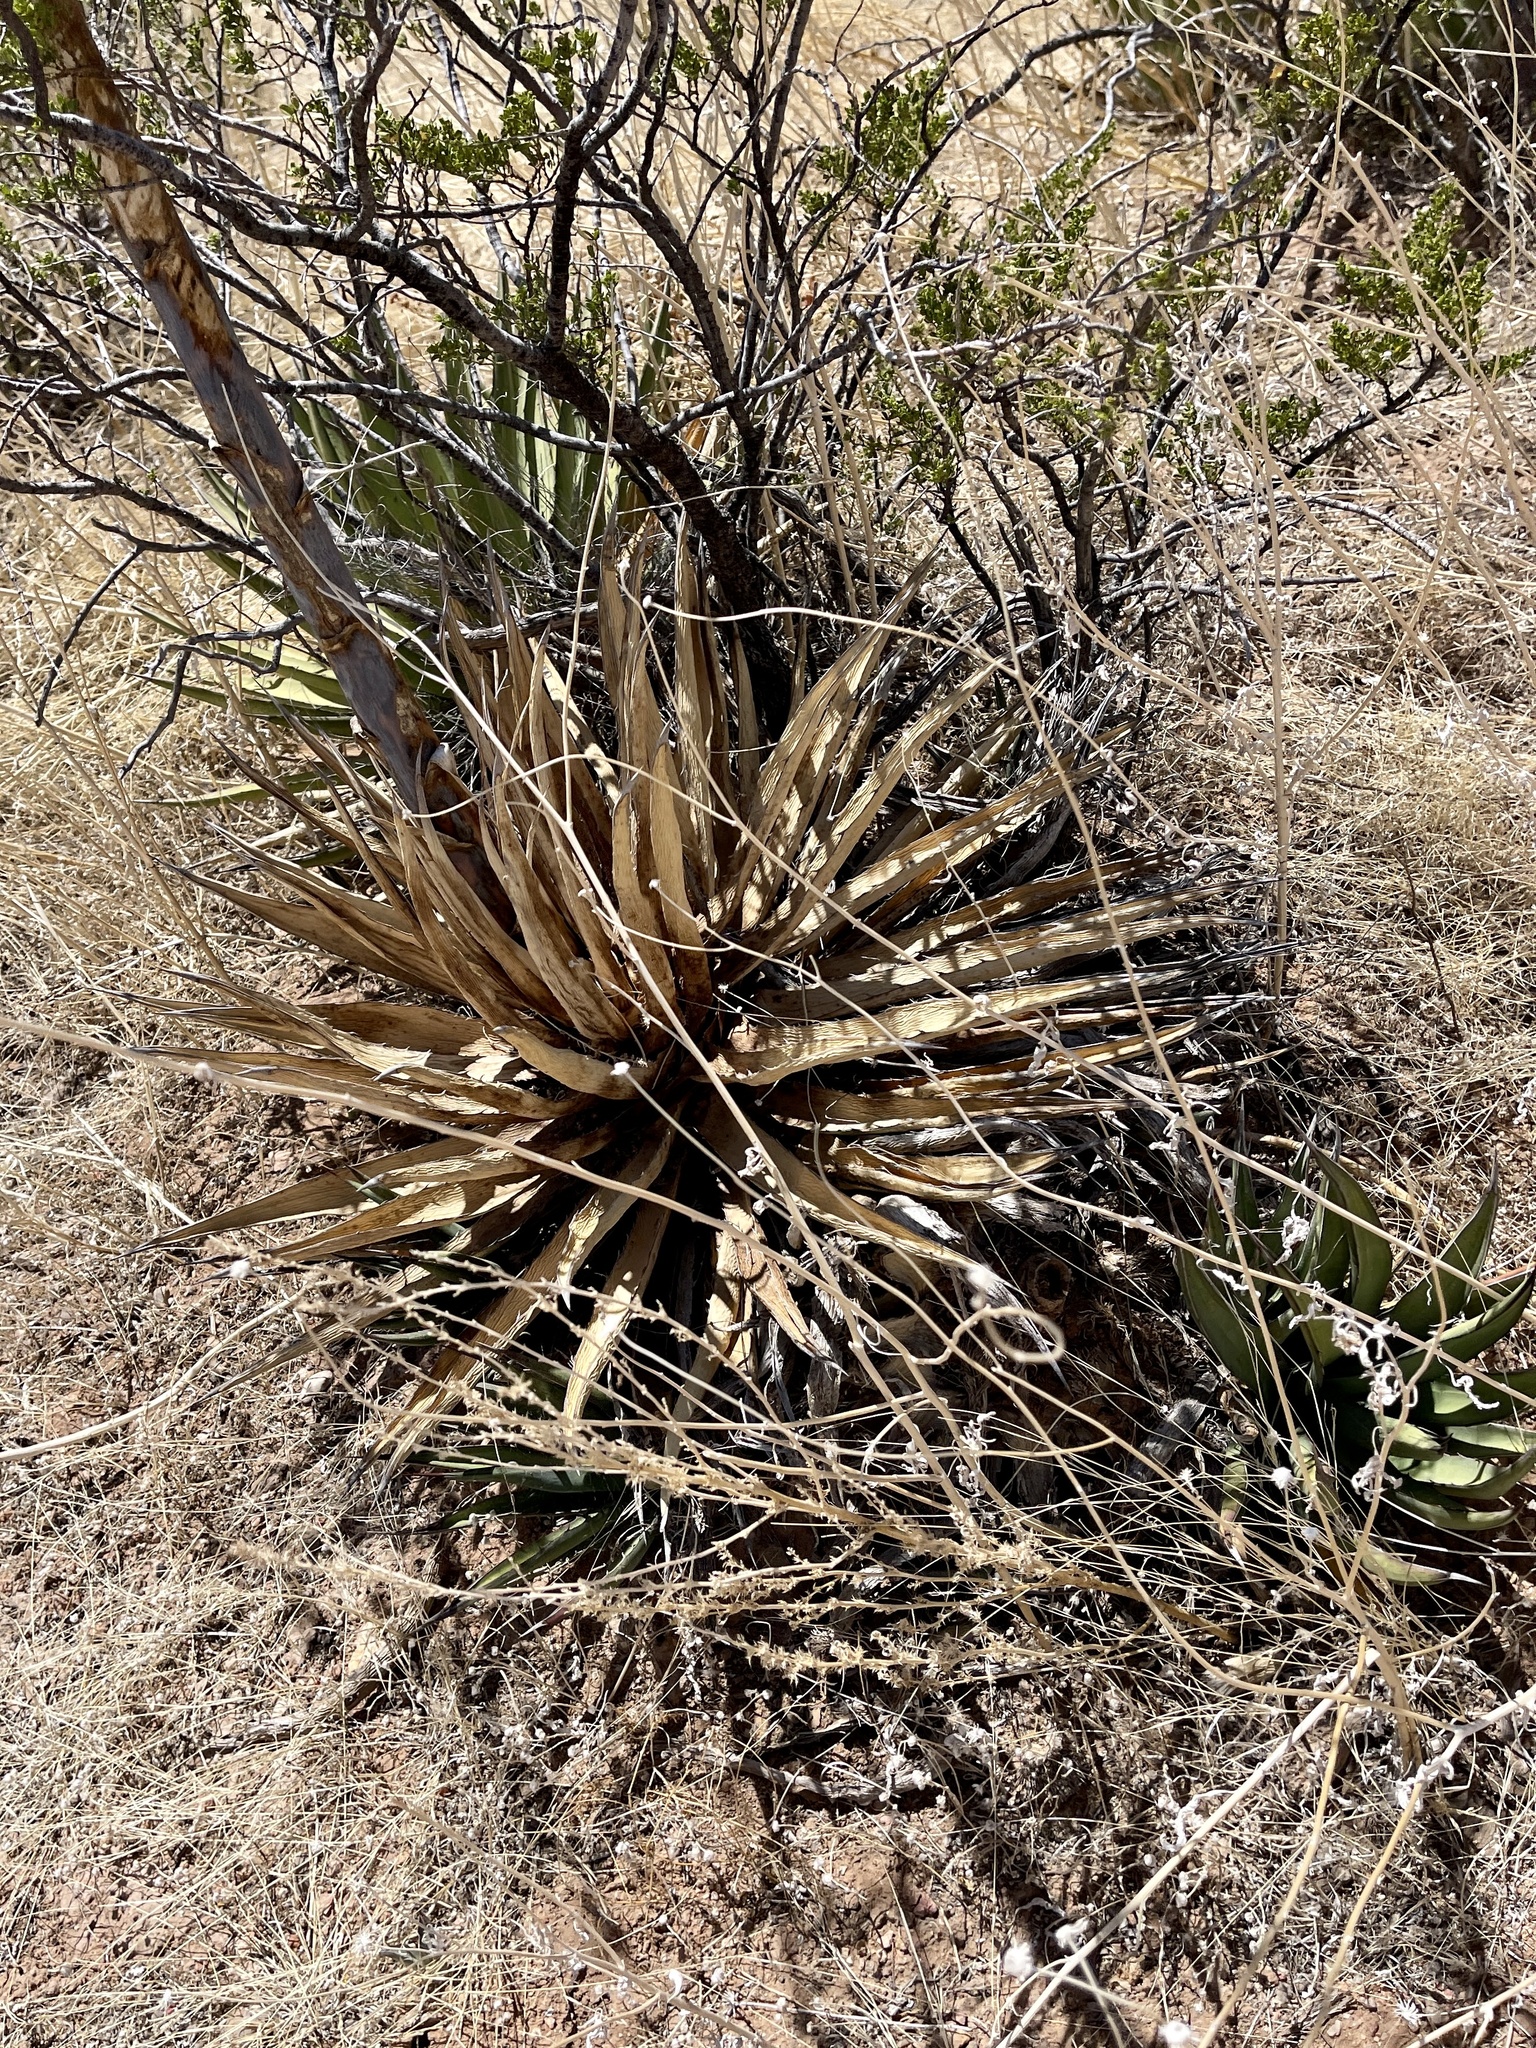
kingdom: Plantae
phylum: Tracheophyta
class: Liliopsida
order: Asparagales
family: Asparagaceae
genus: Agave
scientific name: Agave lechuguilla
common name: Lecheguilla agave
